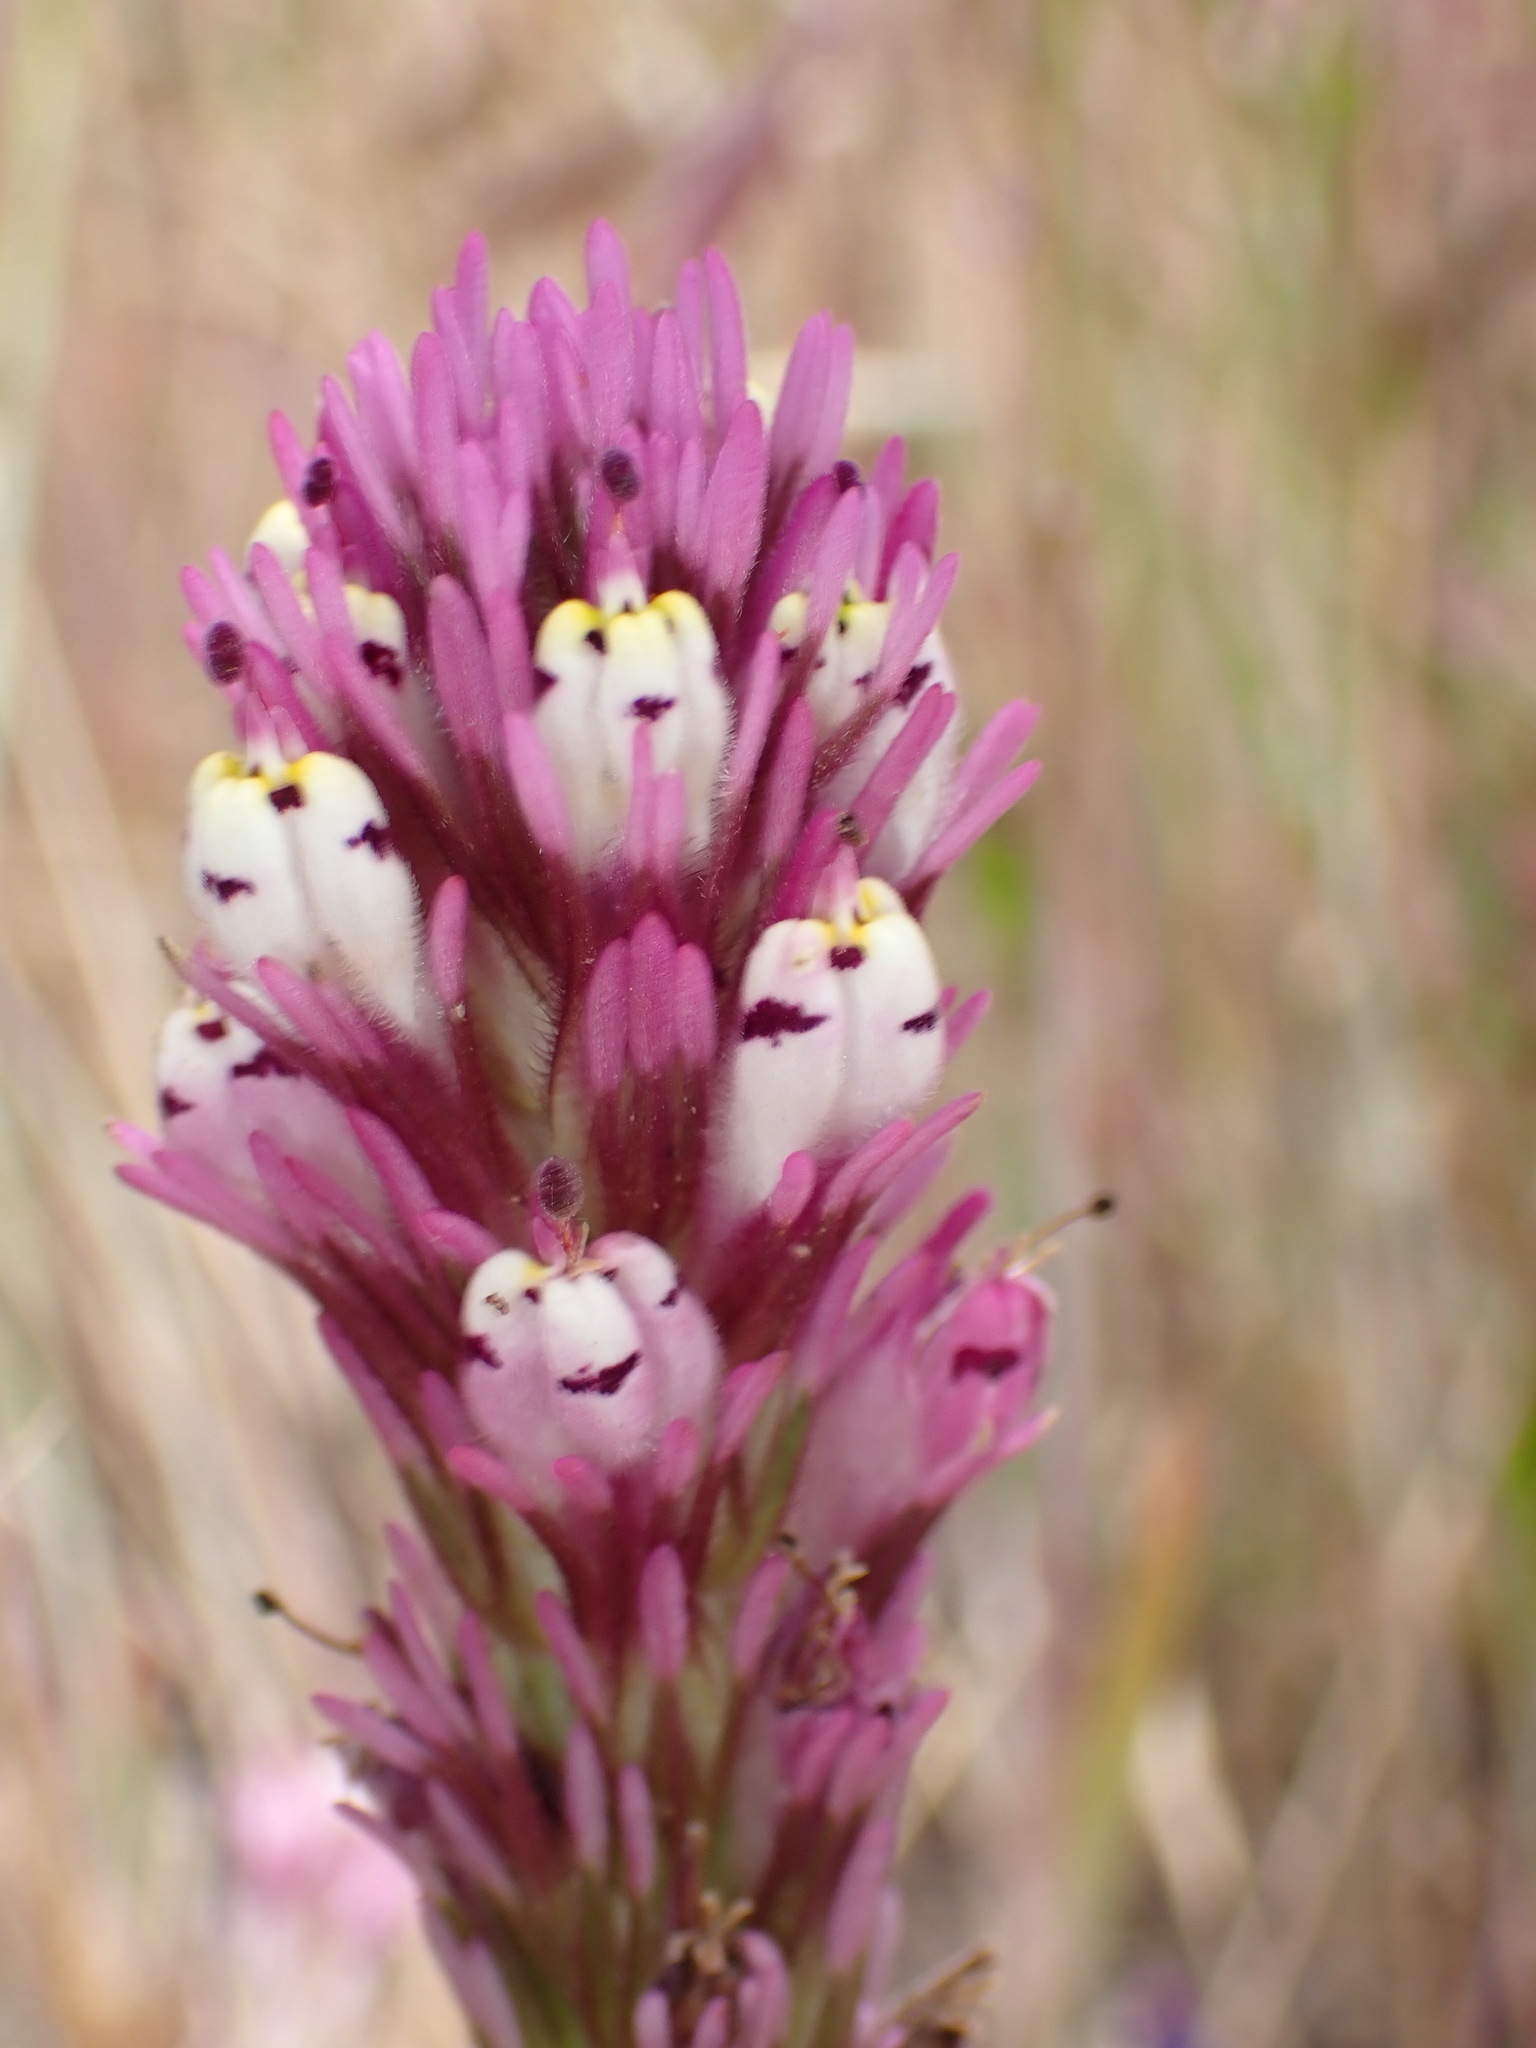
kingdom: Plantae
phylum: Tracheophyta
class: Magnoliopsida
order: Lamiales
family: Orobanchaceae
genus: Castilleja
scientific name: Castilleja densiflora
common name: Dense-flower indian paintbrush
